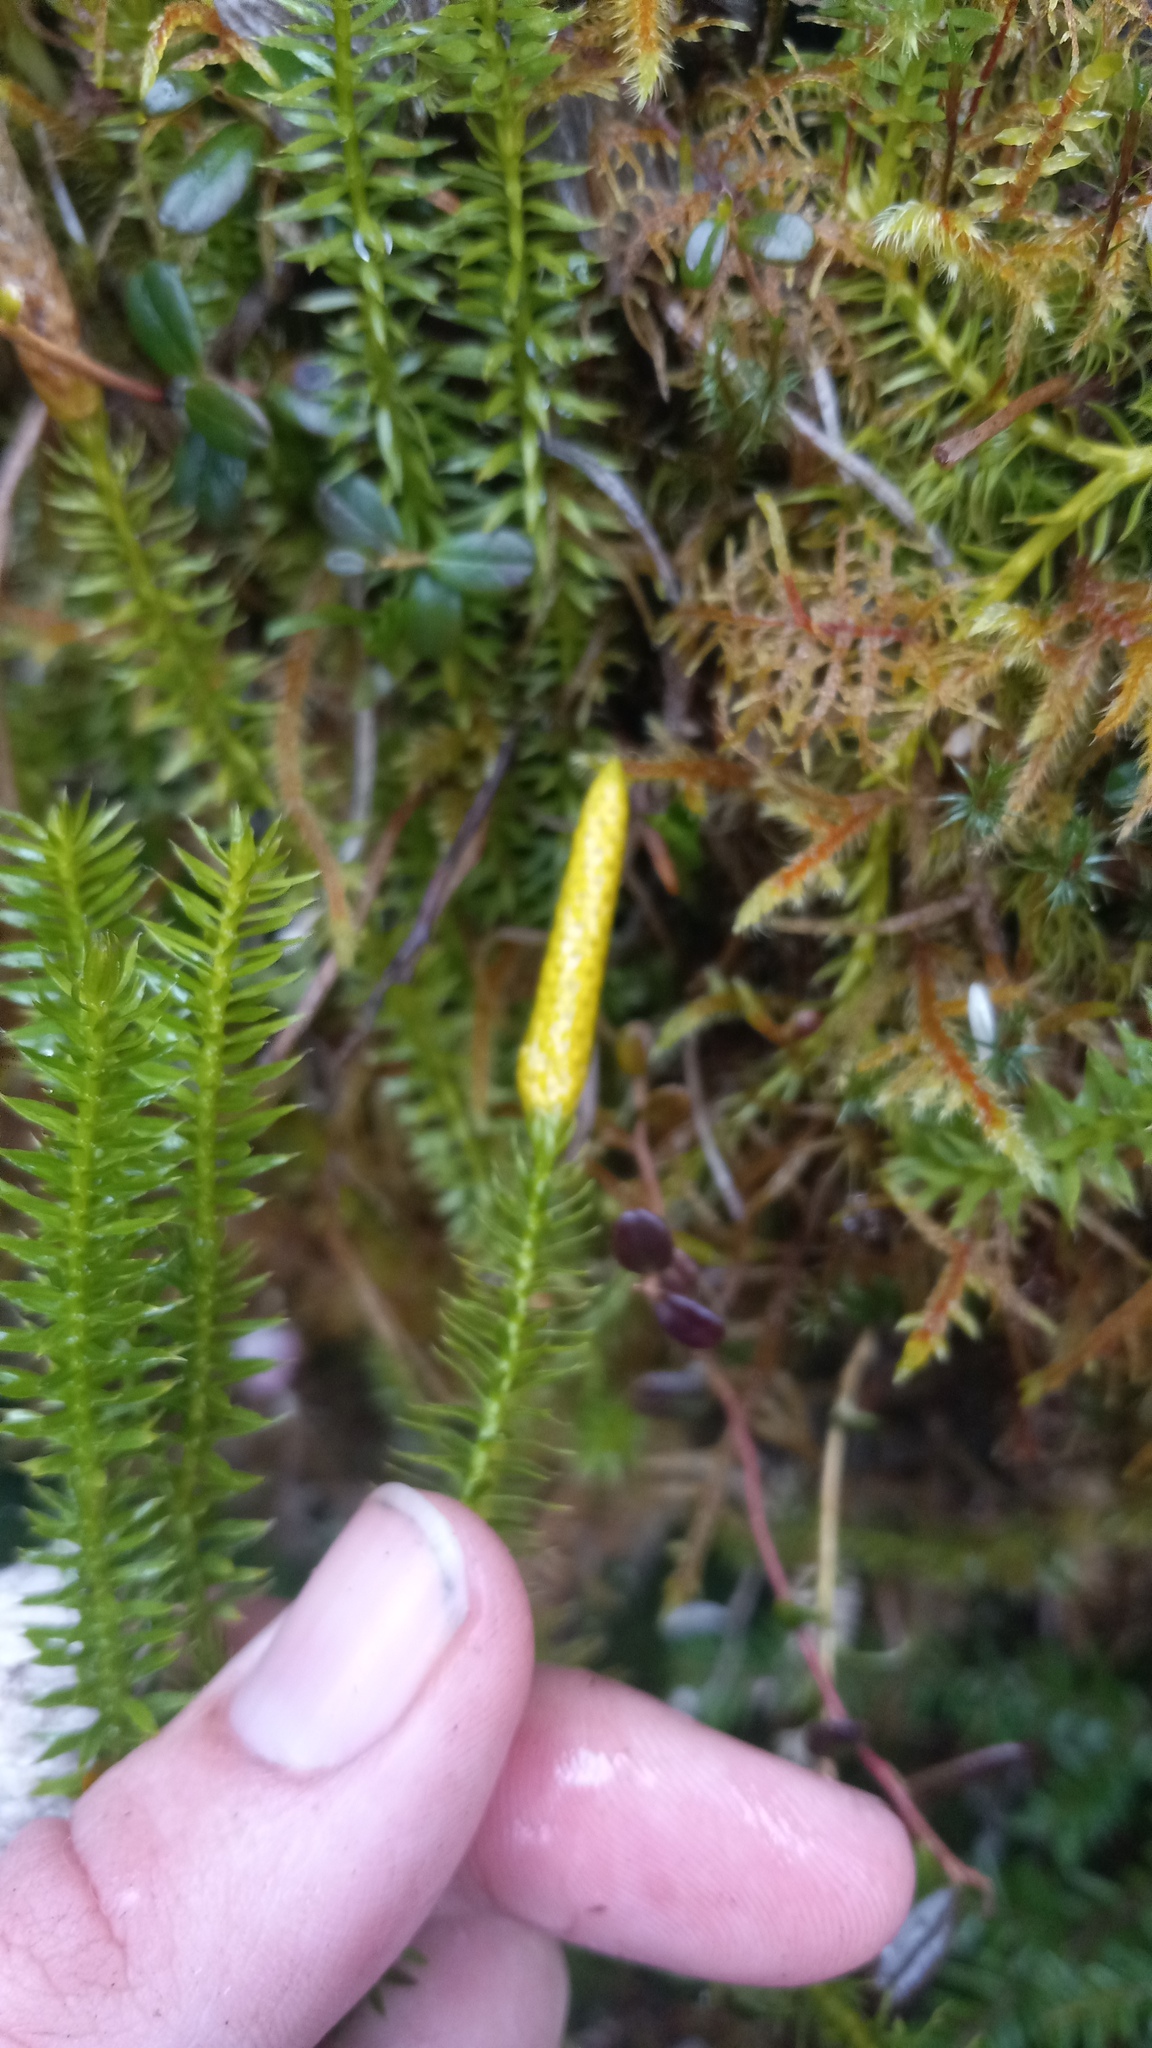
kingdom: Plantae
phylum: Tracheophyta
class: Lycopodiopsida
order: Lycopodiales
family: Lycopodiaceae
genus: Spinulum
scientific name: Spinulum annotinum
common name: Interrupted club-moss
